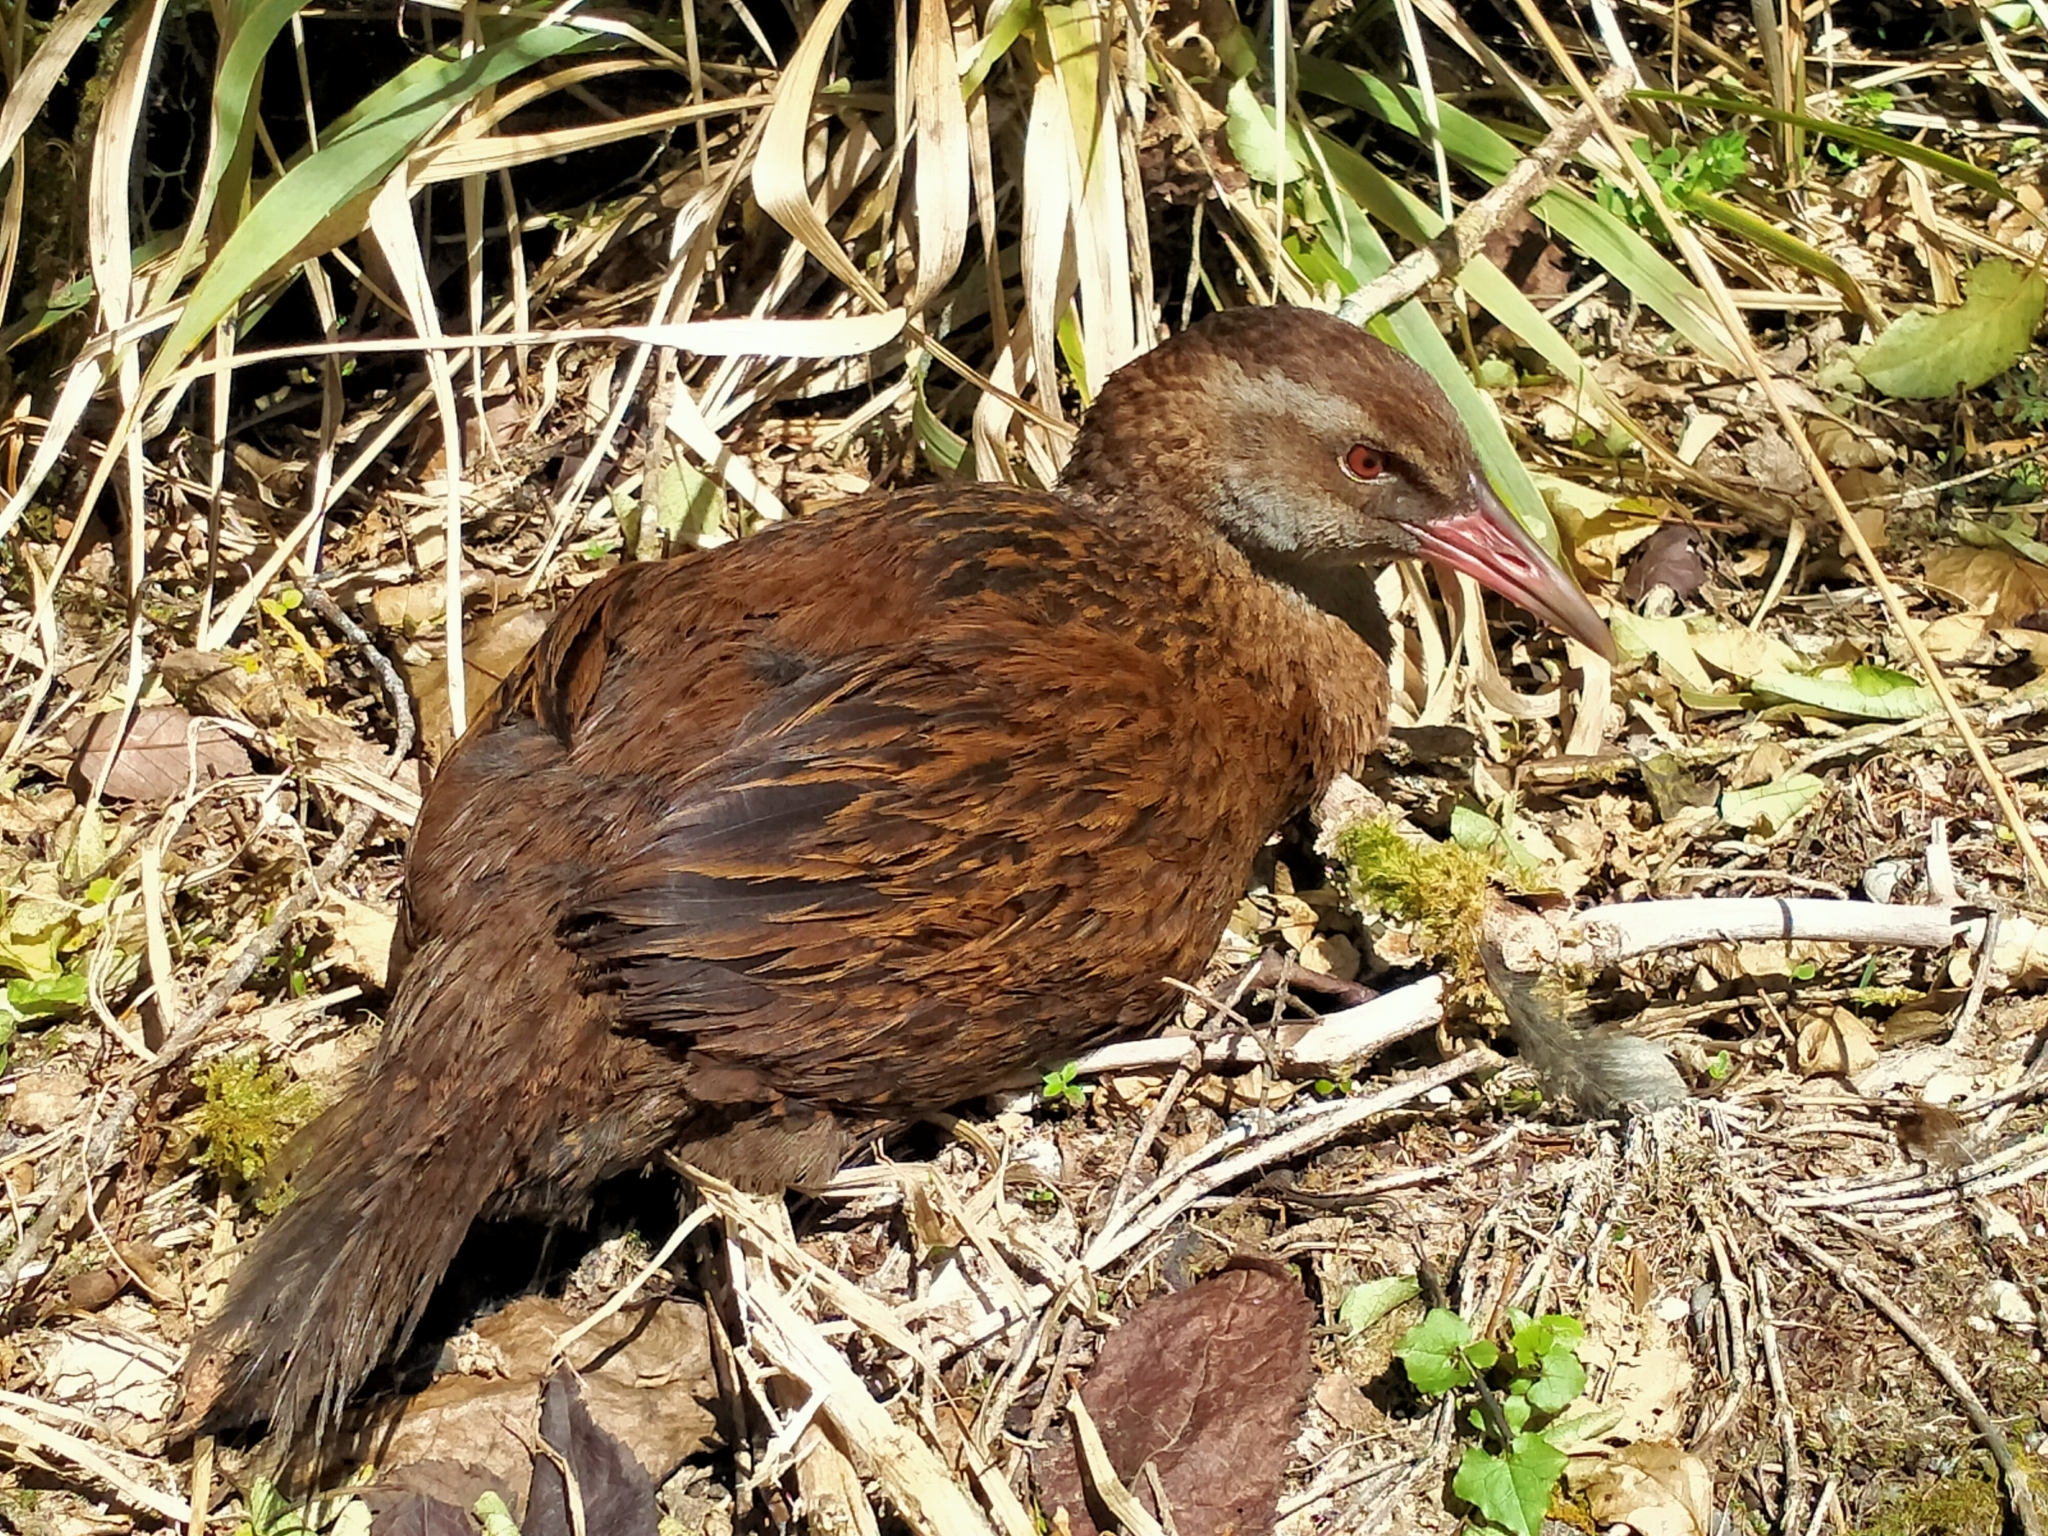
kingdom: Animalia
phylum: Chordata
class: Aves
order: Gruiformes
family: Rallidae
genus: Gallirallus
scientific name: Gallirallus australis
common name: Weka
